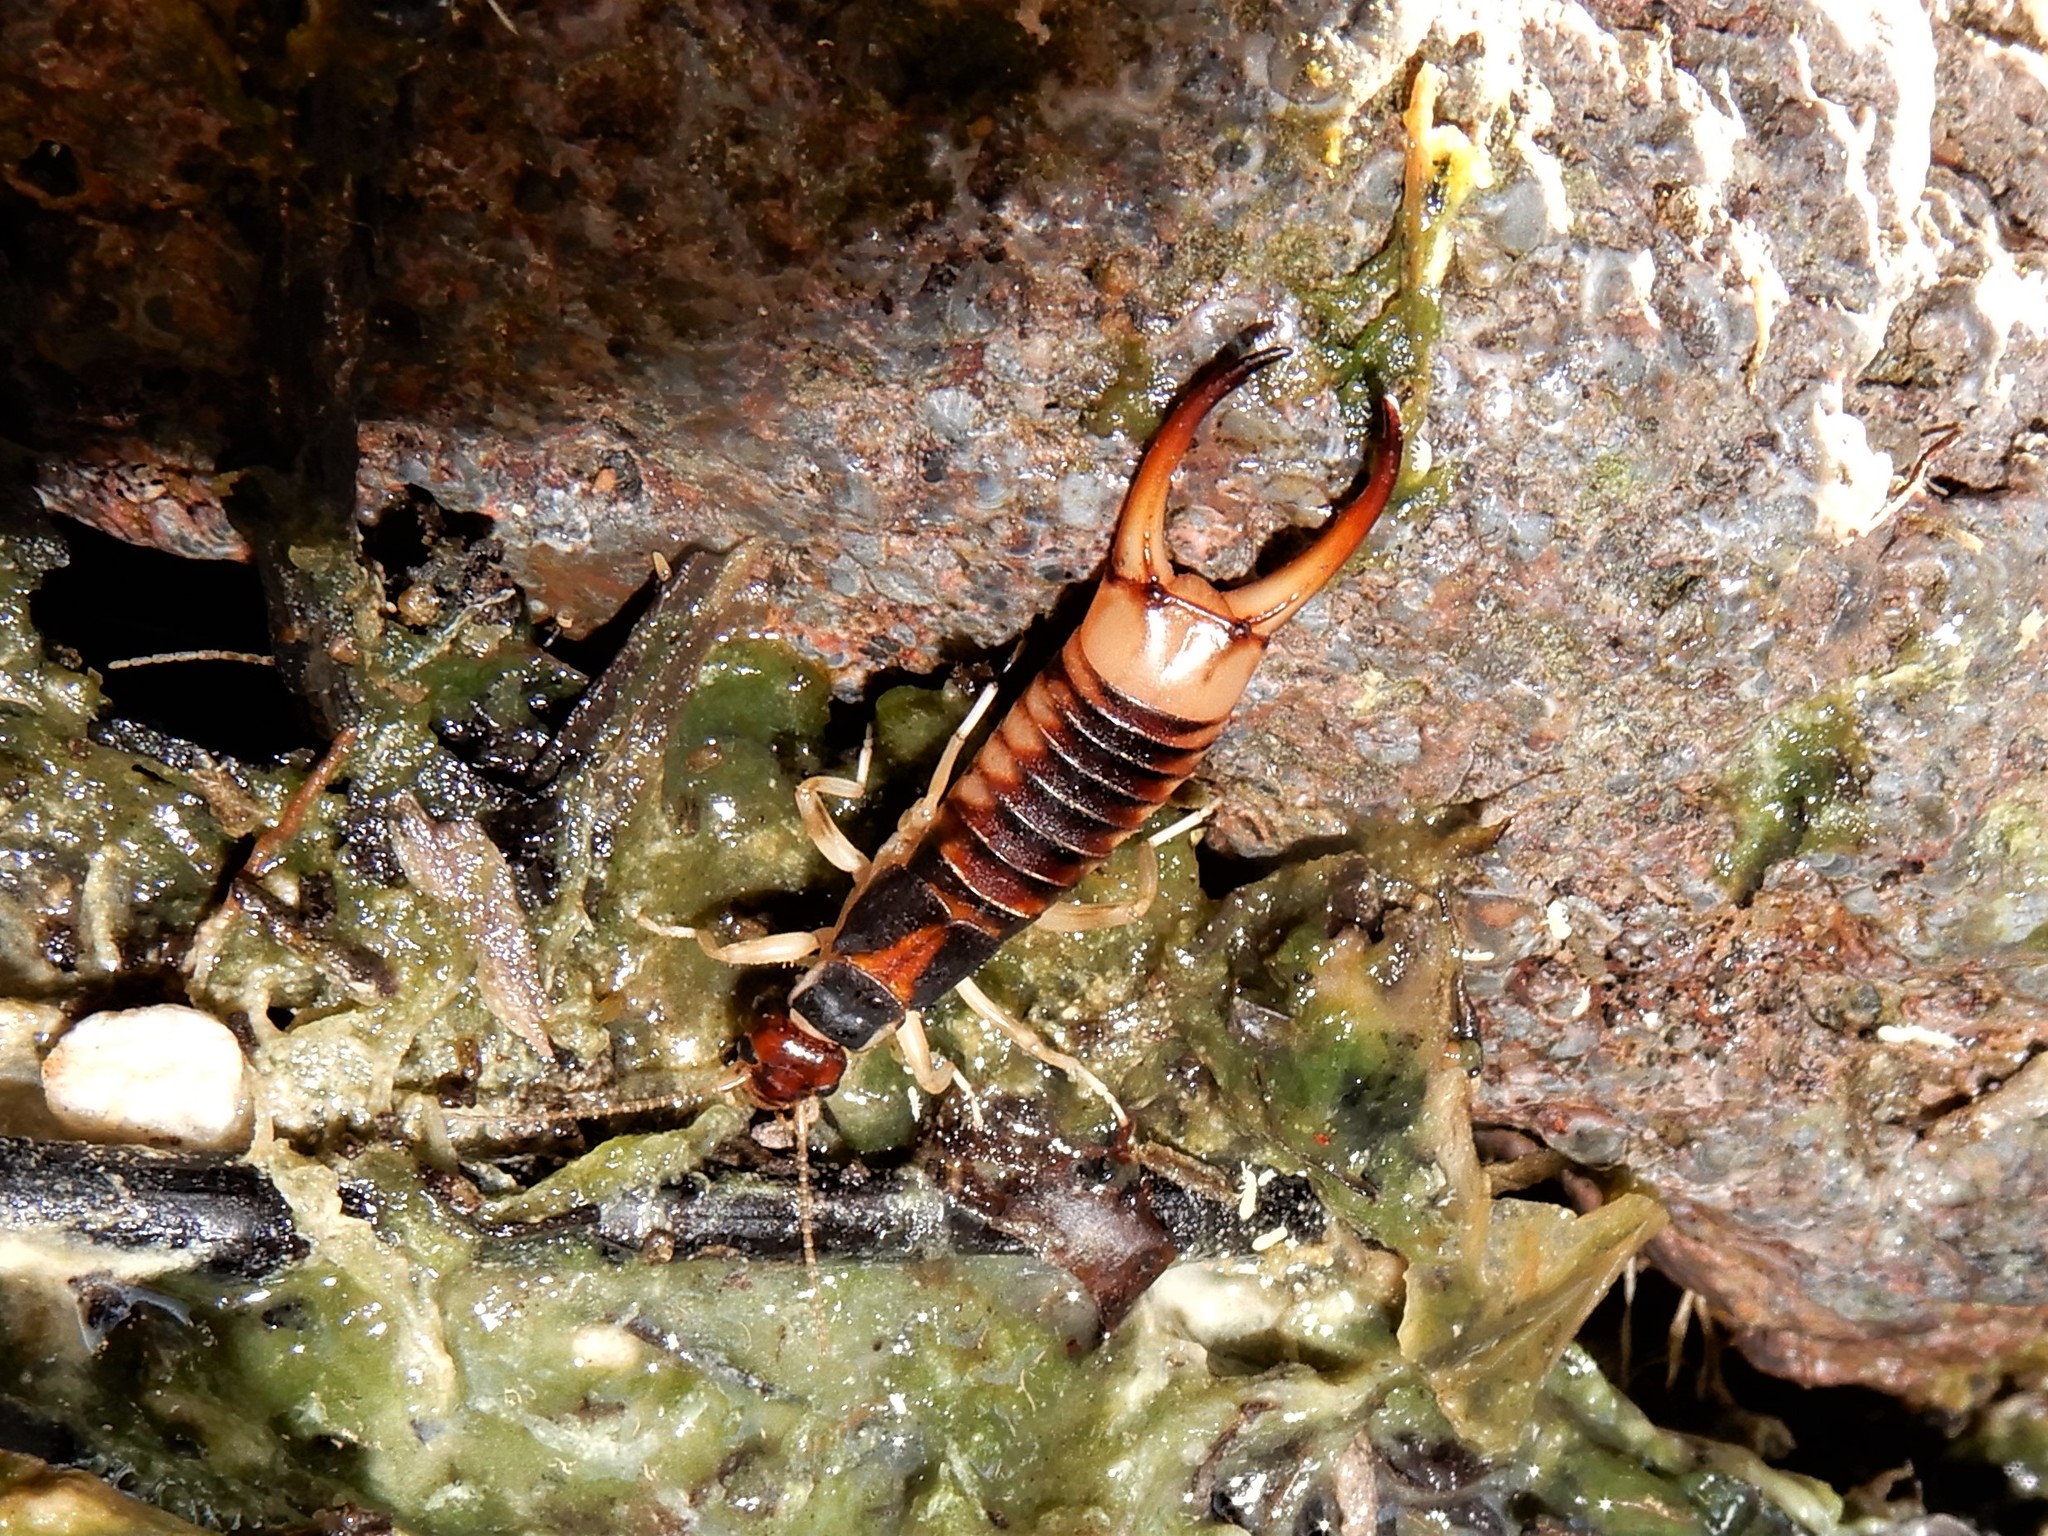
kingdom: Animalia
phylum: Arthropoda
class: Insecta
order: Dermaptera
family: Labiduridae
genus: Labidura
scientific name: Labidura riparia
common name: Striped earwig
